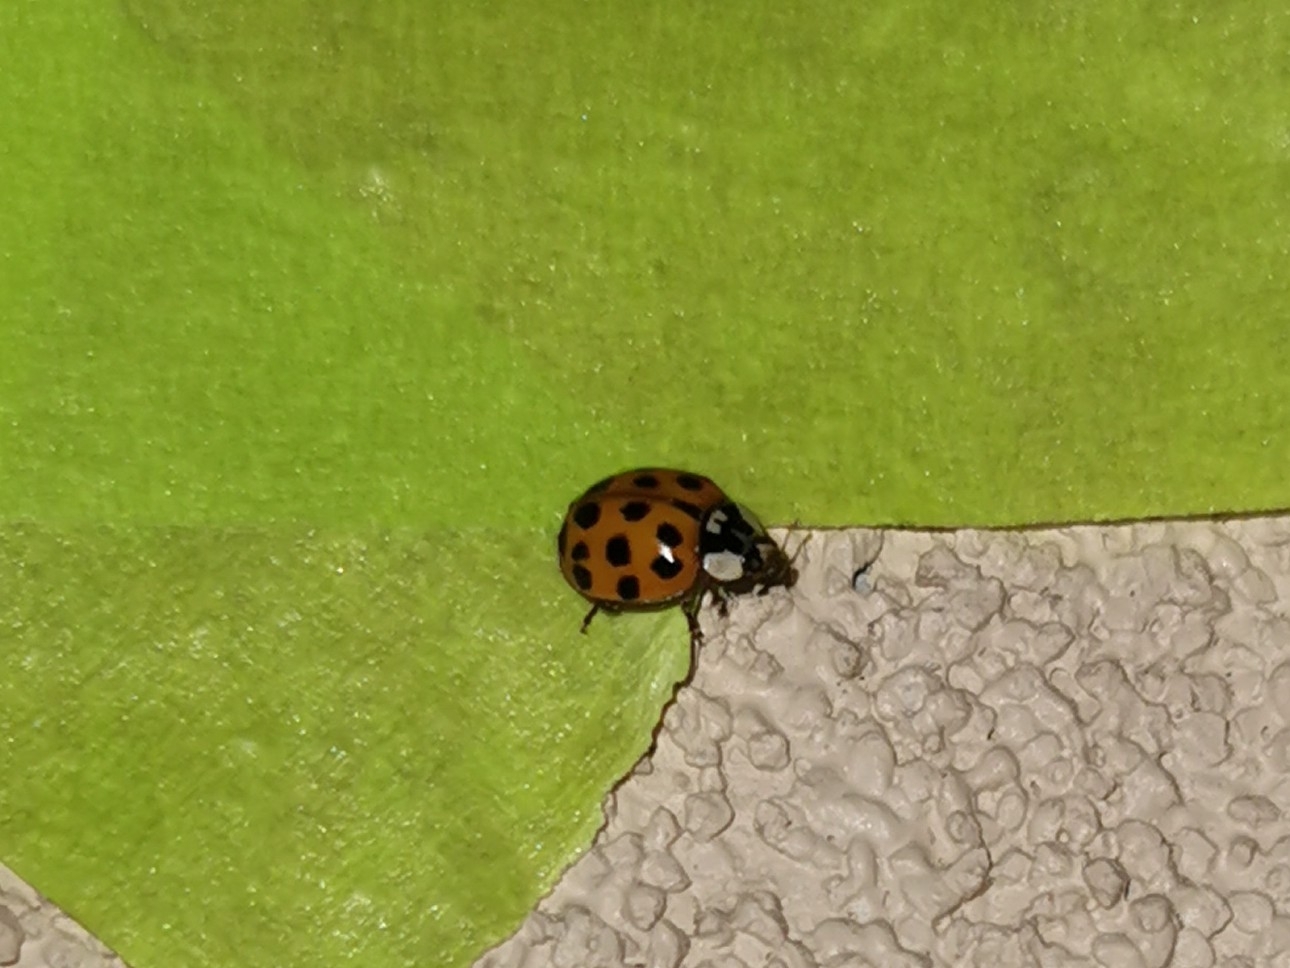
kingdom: Animalia
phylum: Arthropoda
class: Insecta
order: Coleoptera
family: Coccinellidae
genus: Harmonia
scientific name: Harmonia axyridis
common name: Harlequin ladybird
